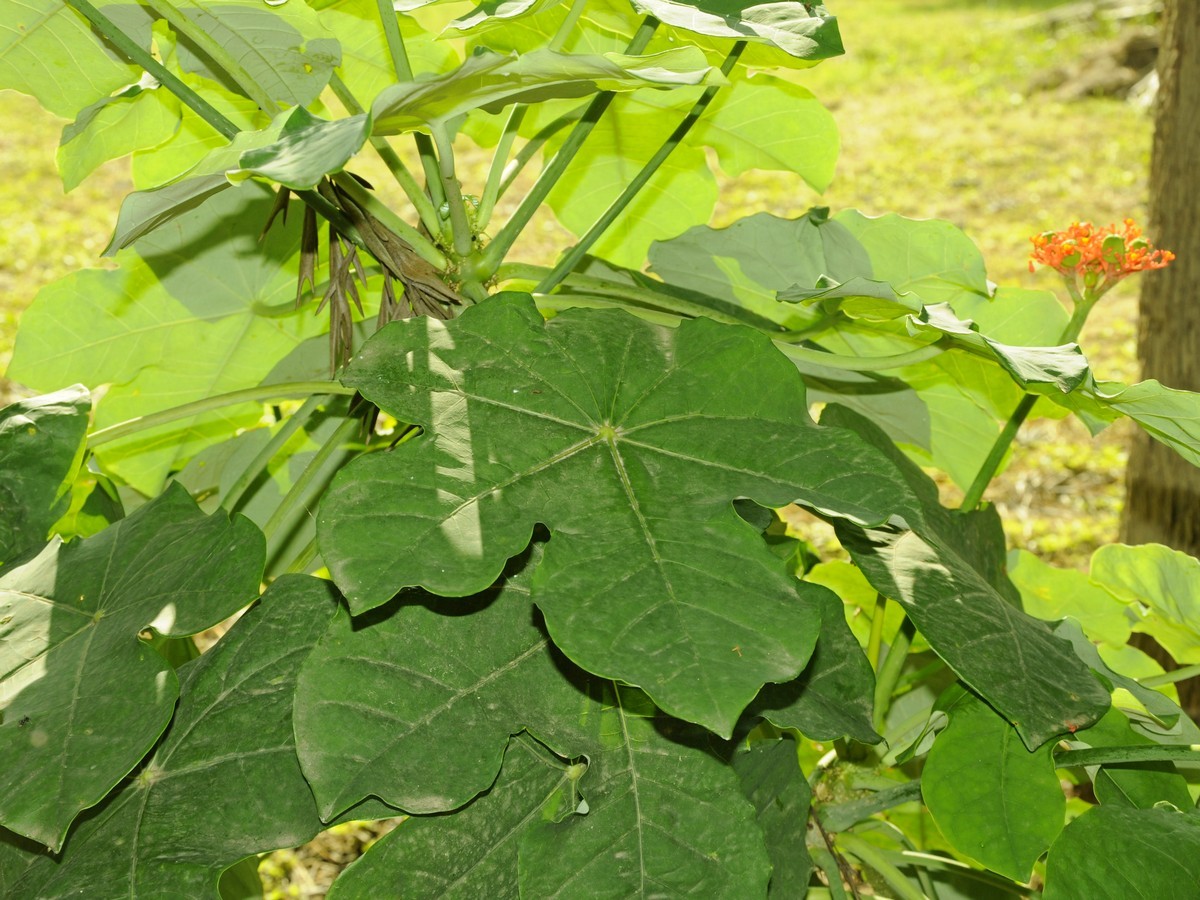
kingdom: Plantae
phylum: Tracheophyta
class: Magnoliopsida
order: Malpighiales
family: Euphorbiaceae
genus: Jatropha
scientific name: Jatropha podagrica
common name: Gout stalk
